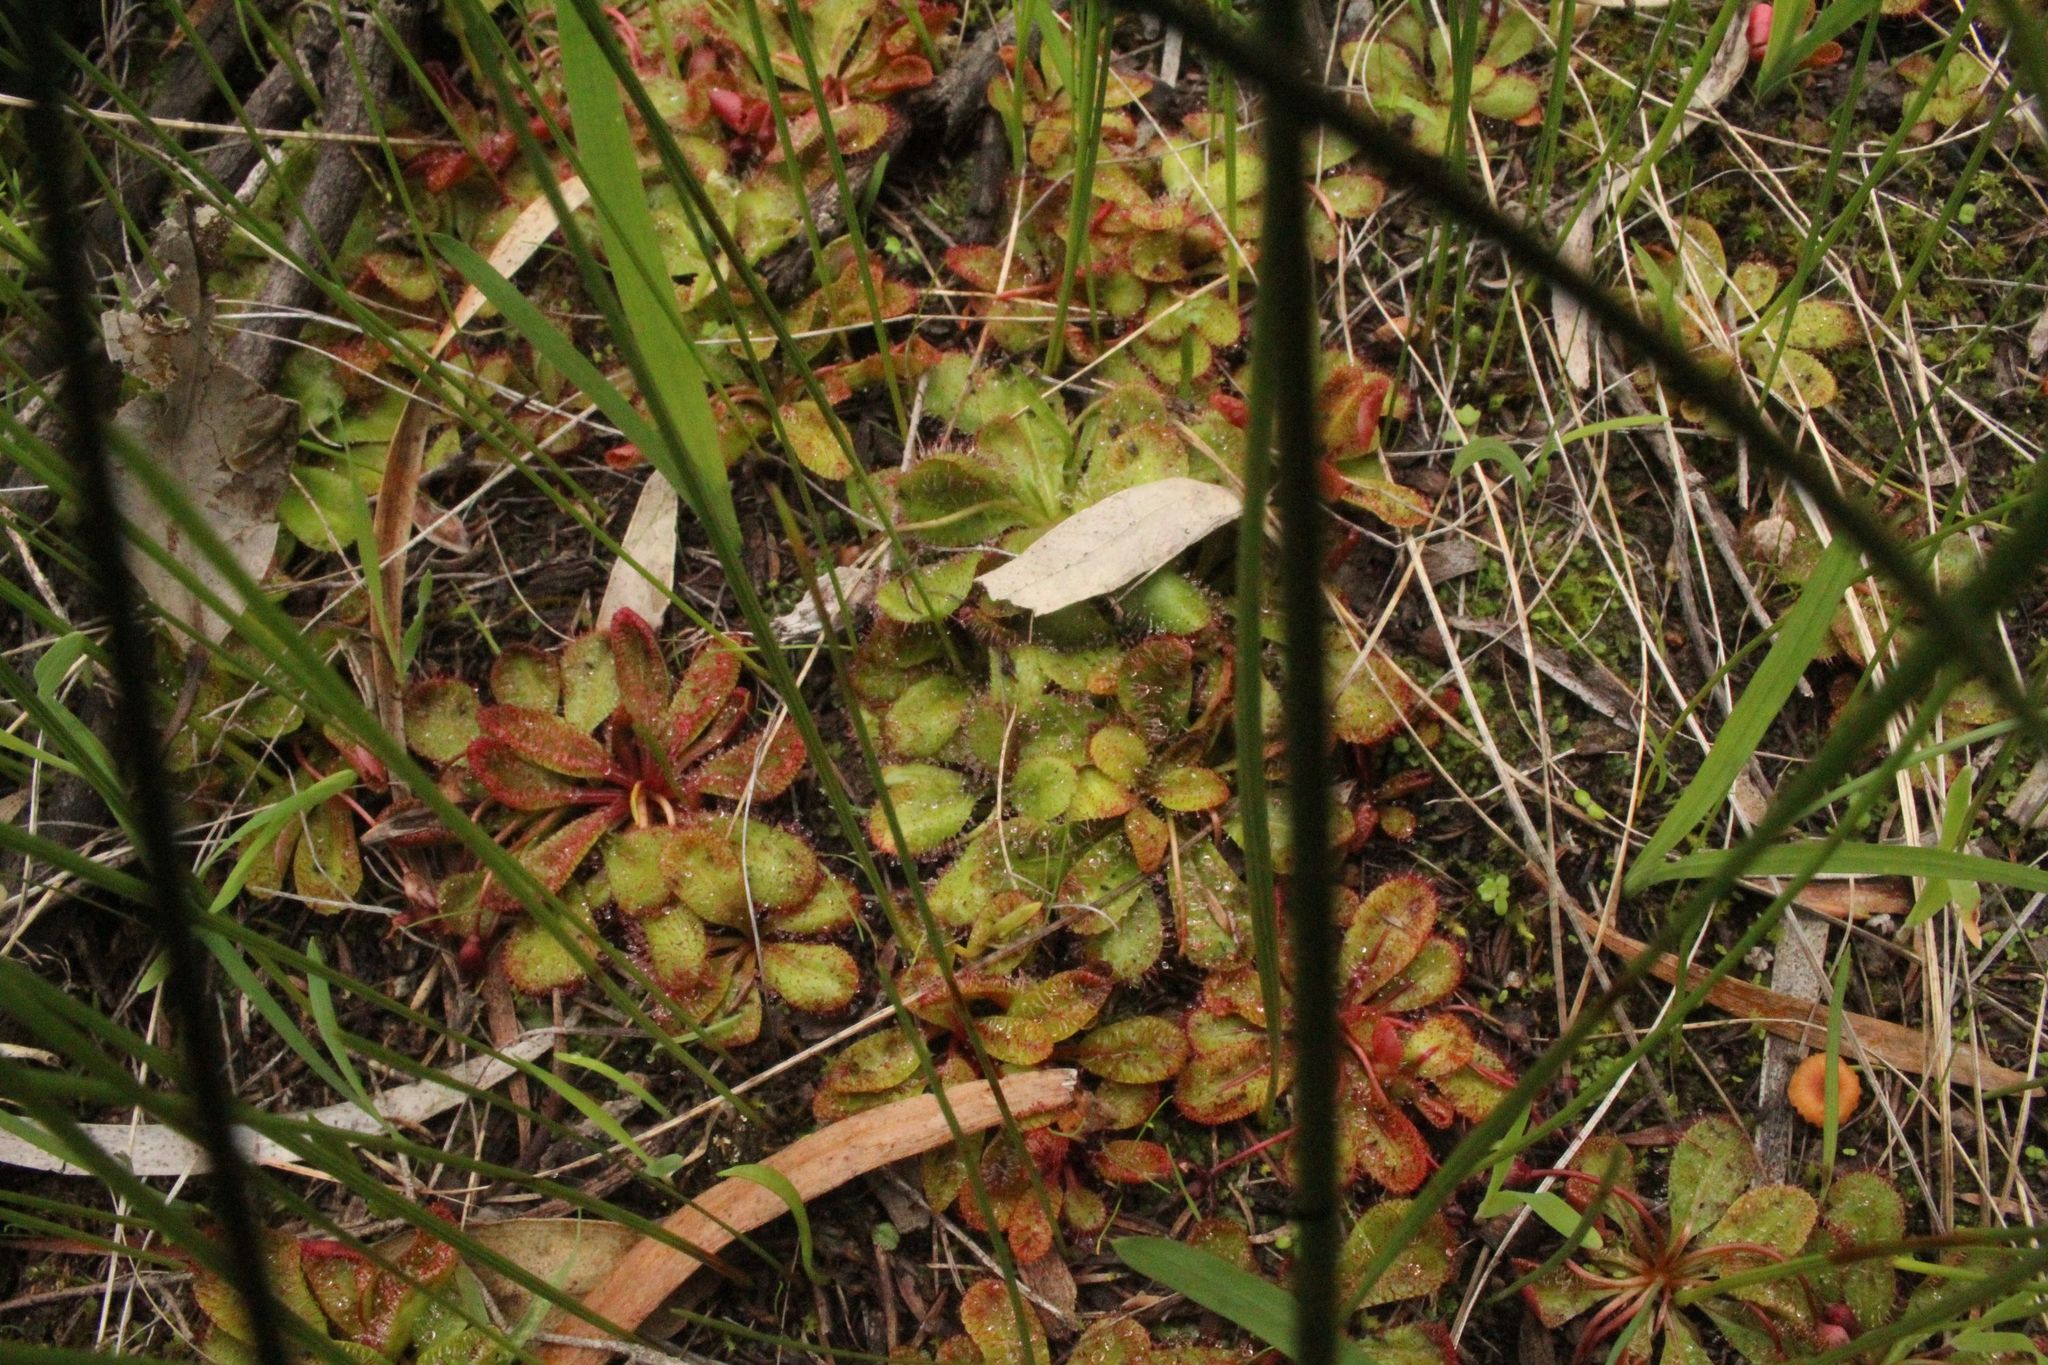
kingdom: Plantae
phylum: Tracheophyta
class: Magnoliopsida
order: Caryophyllales
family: Droseraceae
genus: Drosera
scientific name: Drosera tubaestylis
